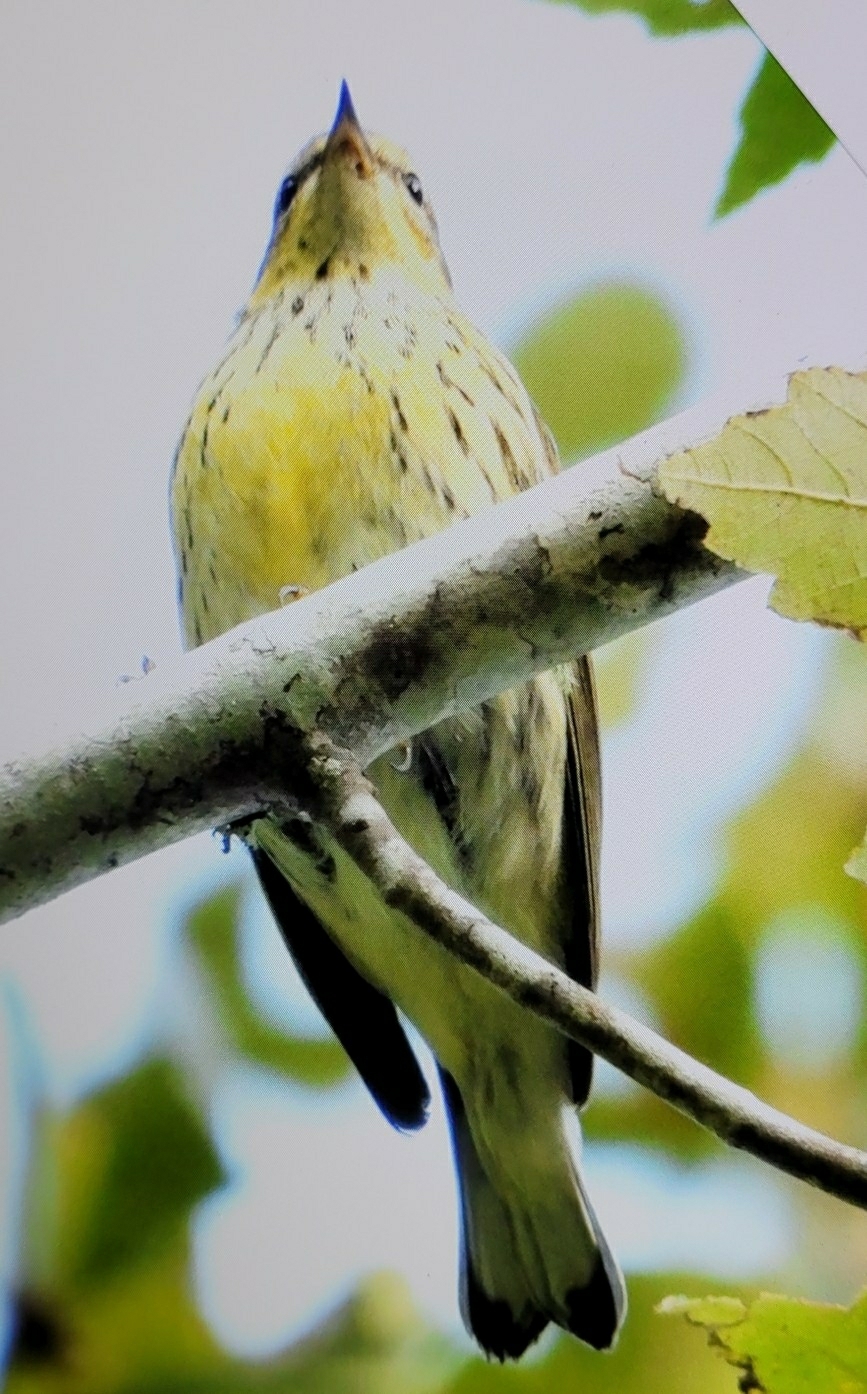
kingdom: Animalia
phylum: Chordata
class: Aves
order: Passeriformes
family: Parulidae
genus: Setophaga
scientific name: Setophaga tigrina
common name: Cape may warbler
